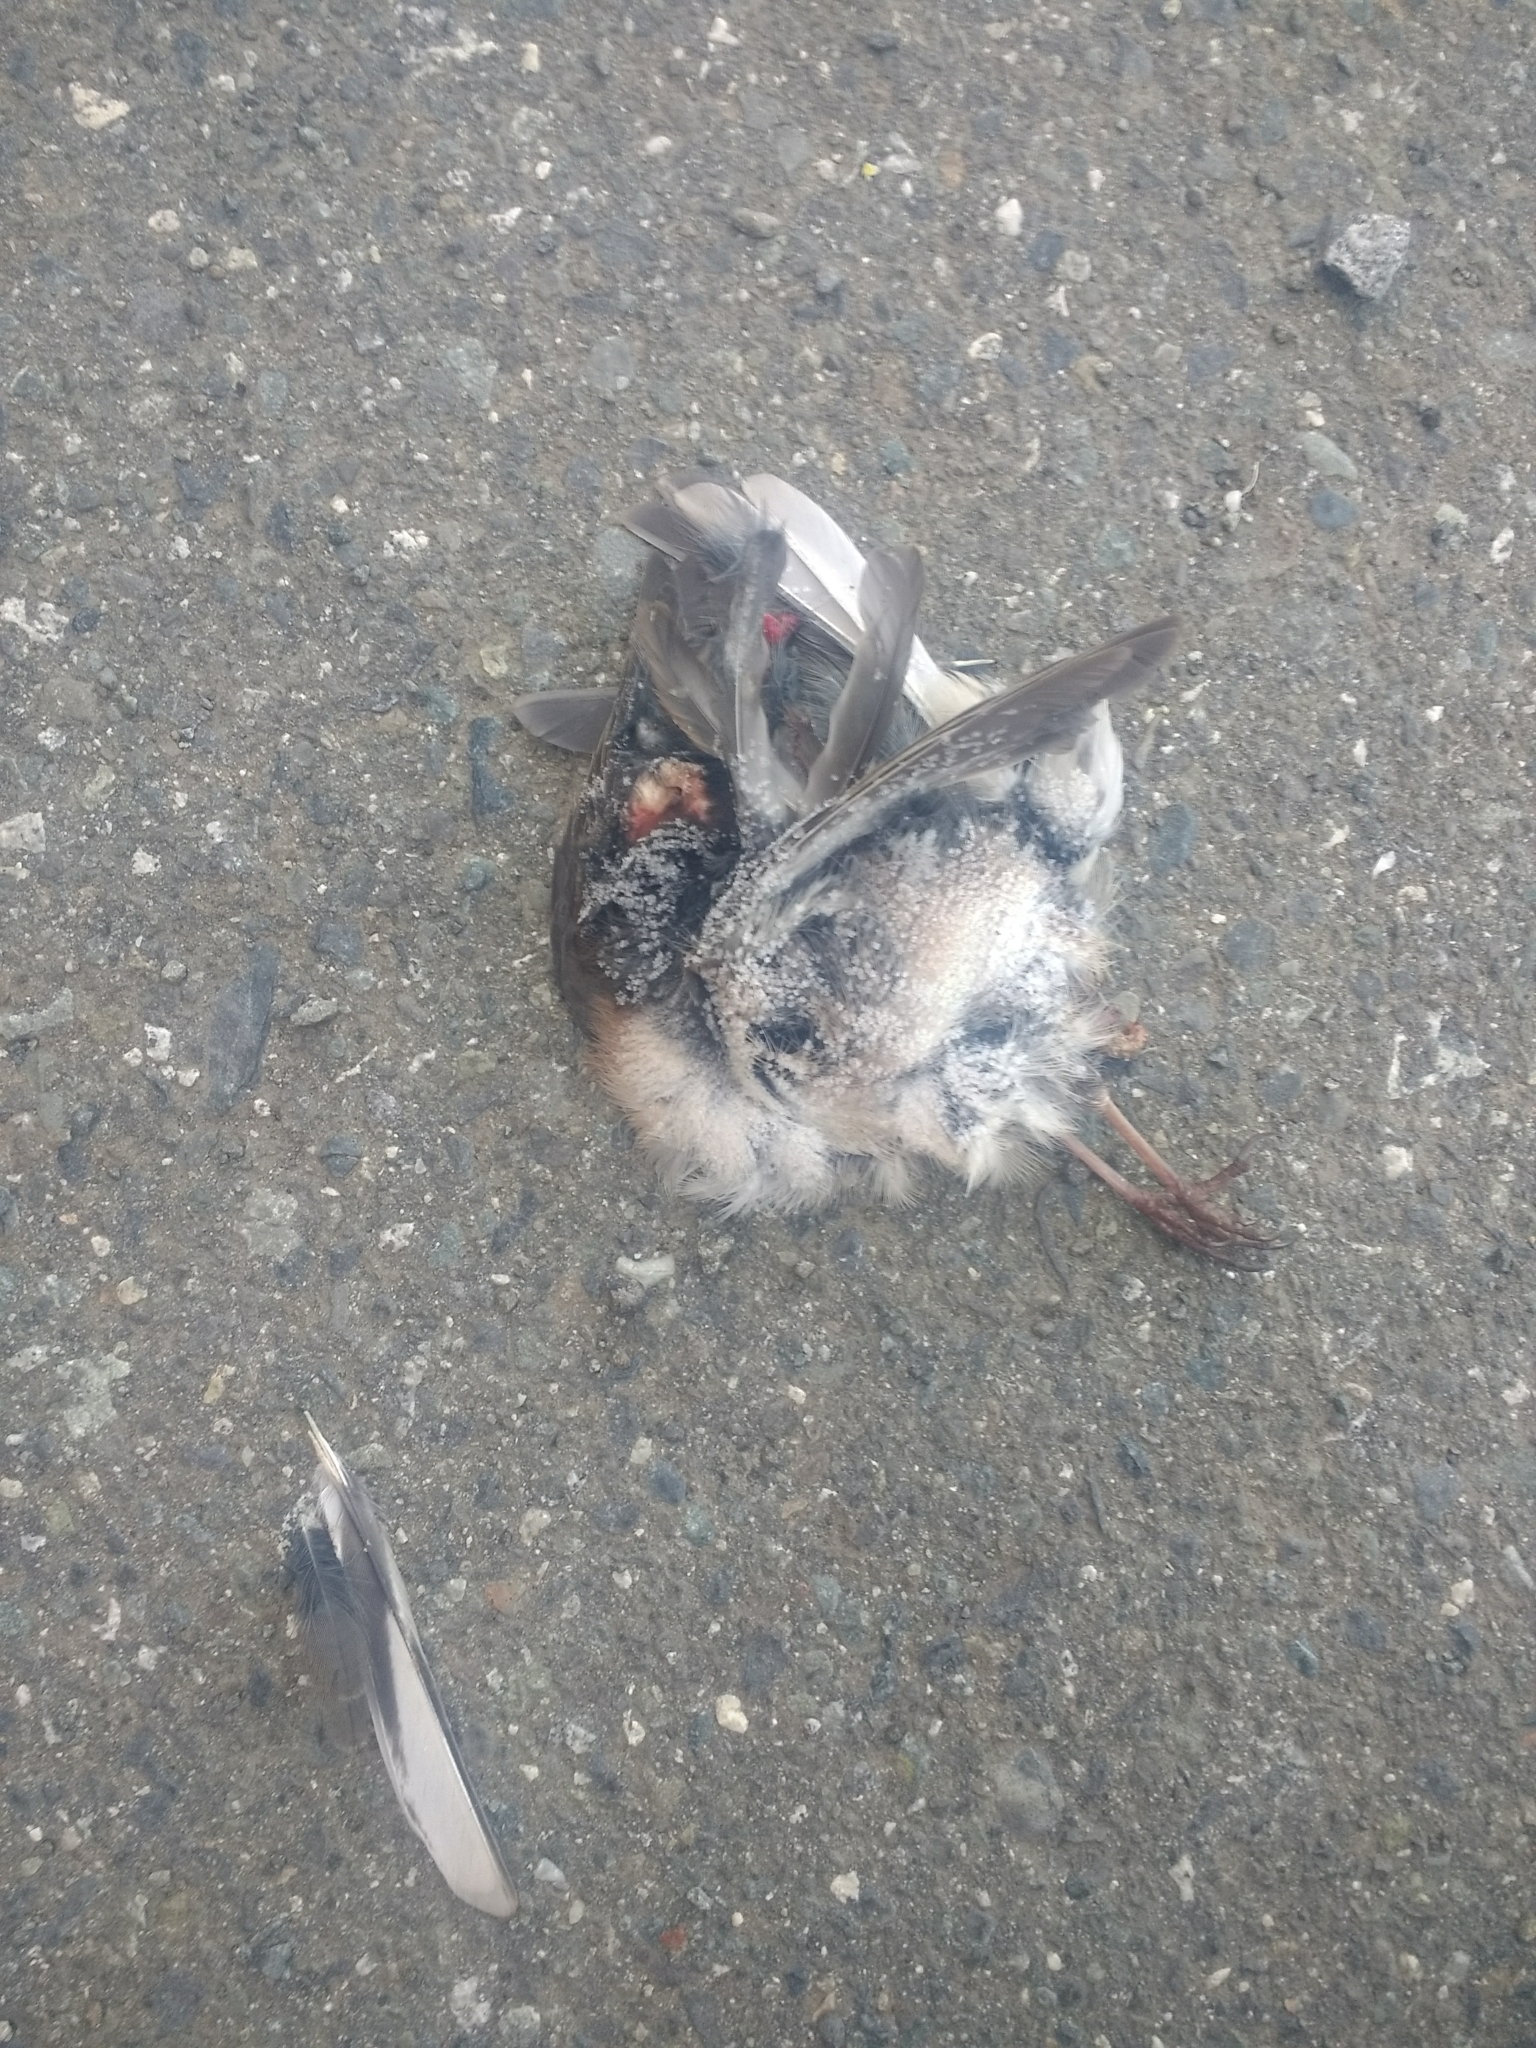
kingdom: Animalia
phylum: Chordata
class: Aves
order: Passeriformes
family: Passerellidae
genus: Junco
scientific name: Junco hyemalis
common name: Dark-eyed junco
